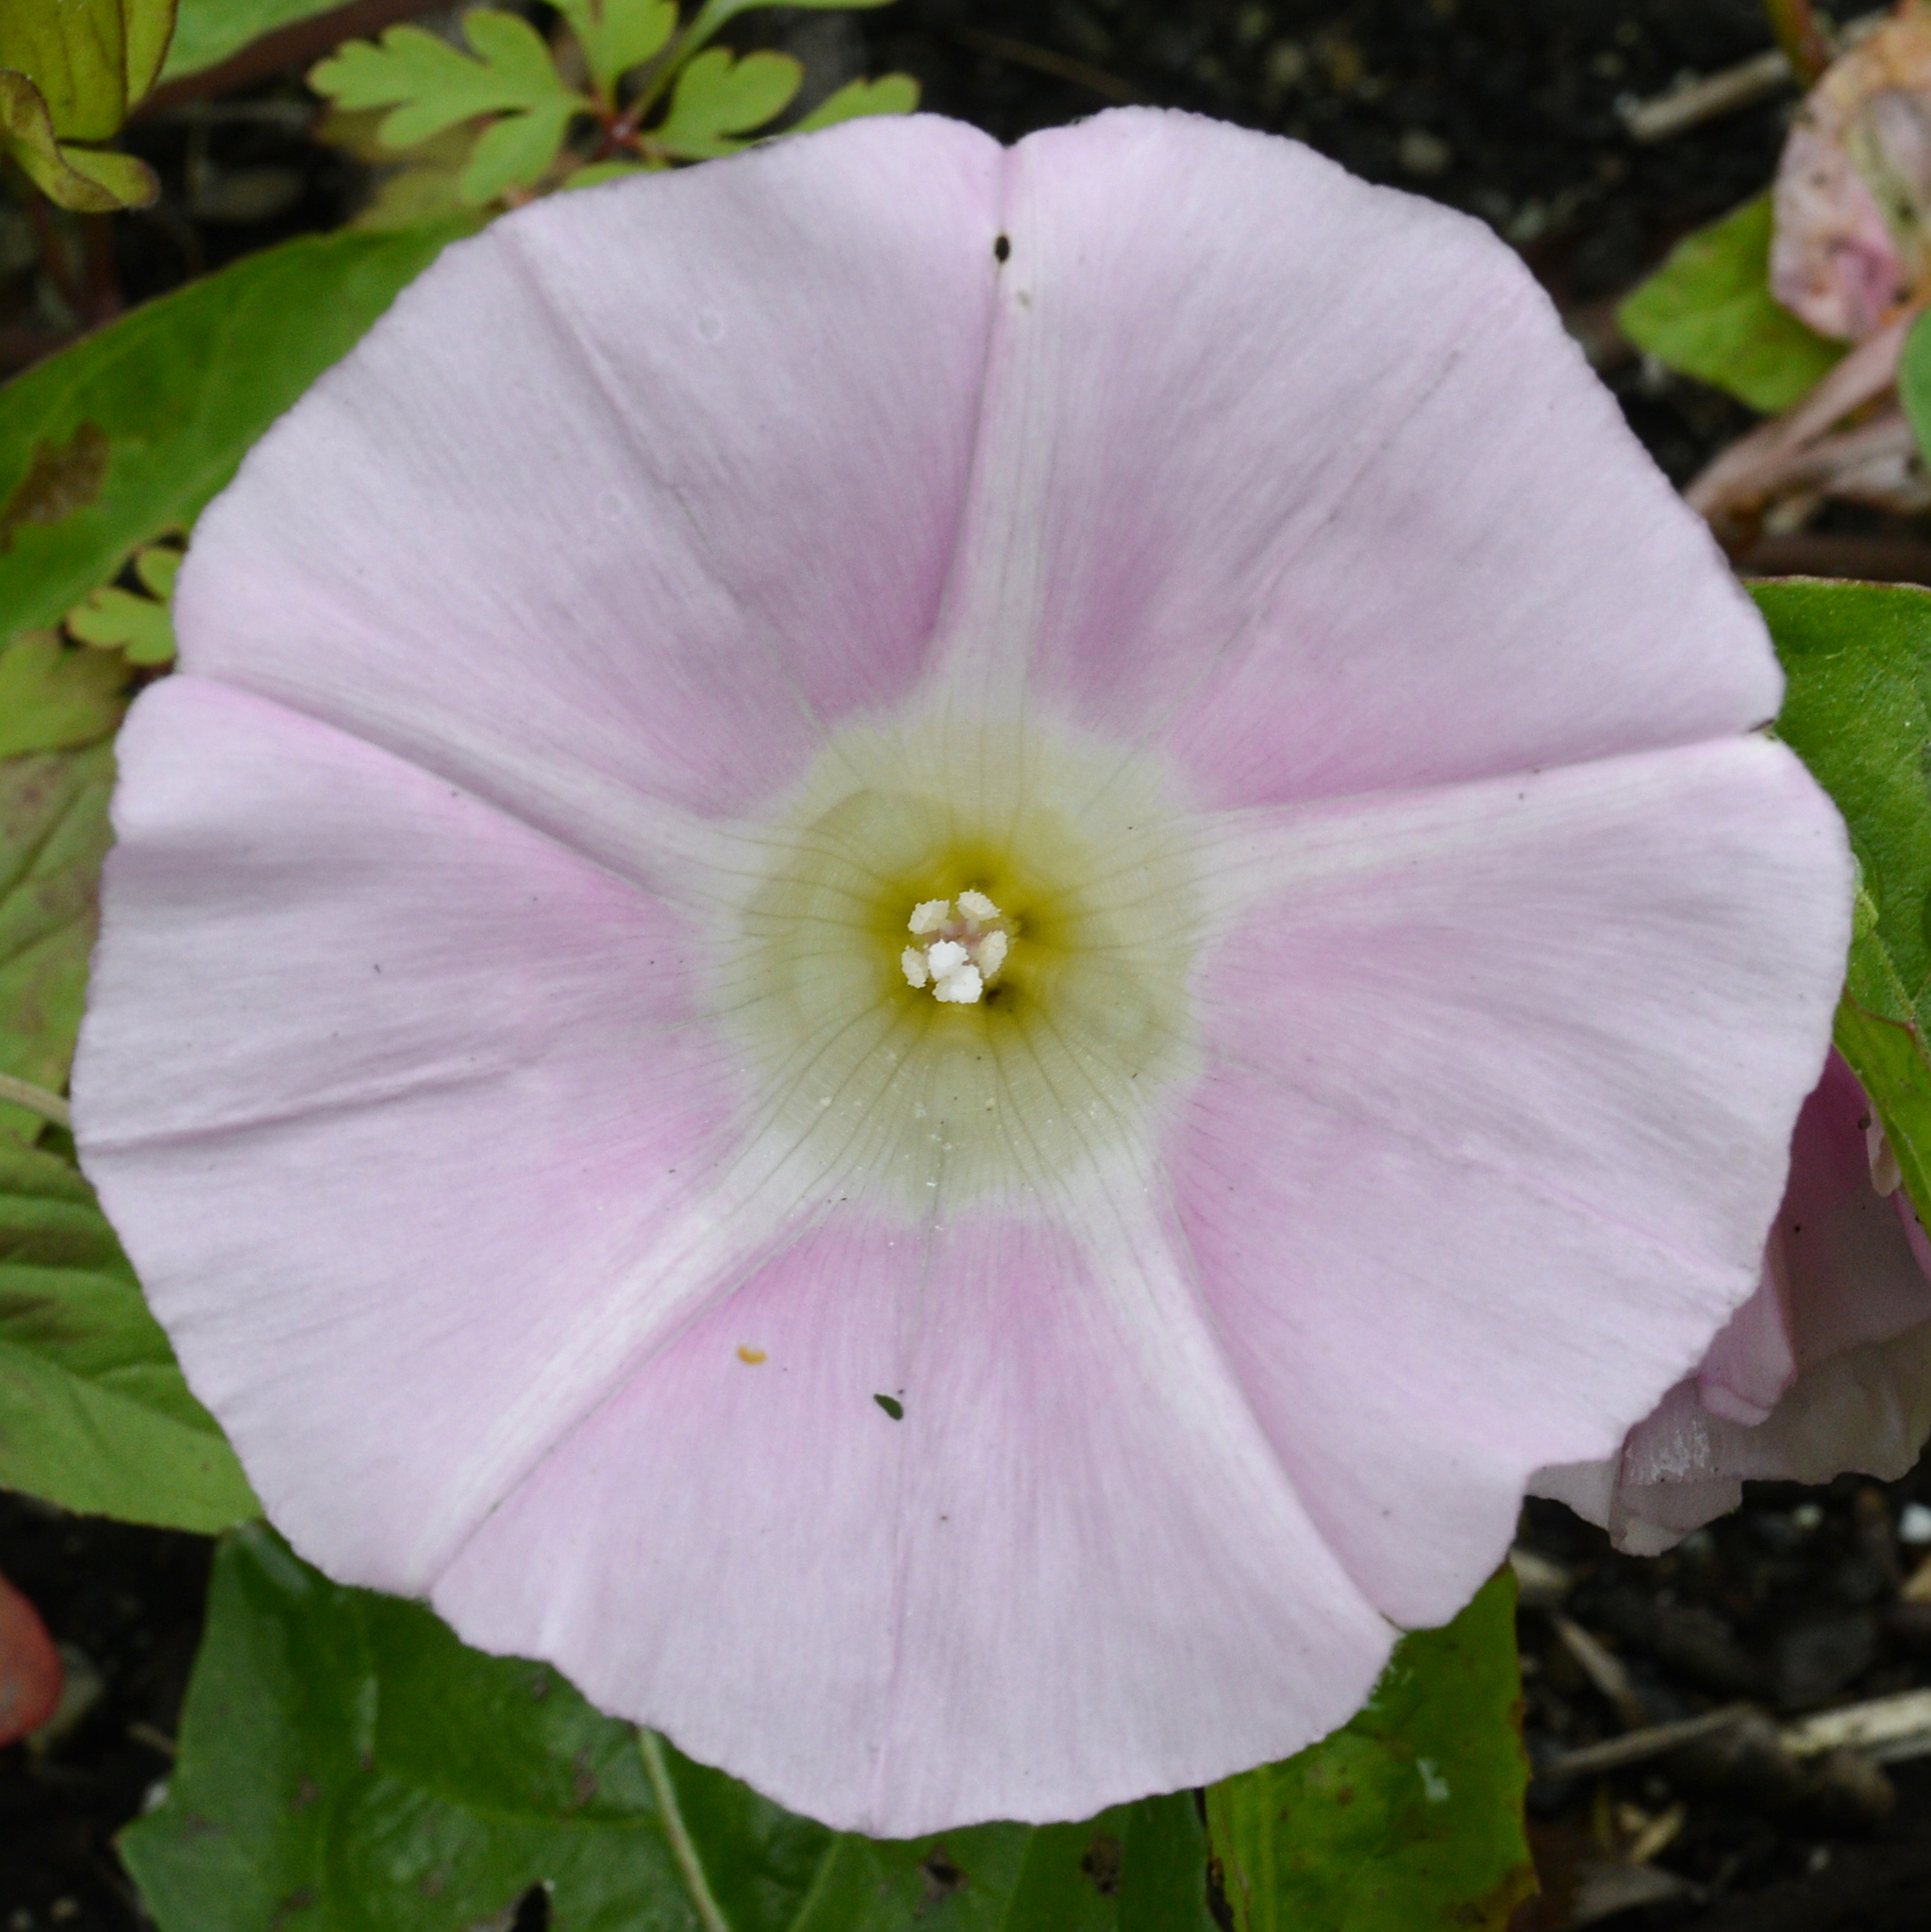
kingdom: Plantae
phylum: Tracheophyta
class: Magnoliopsida
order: Solanales
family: Convolvulaceae
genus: Calystegia
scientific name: Calystegia
